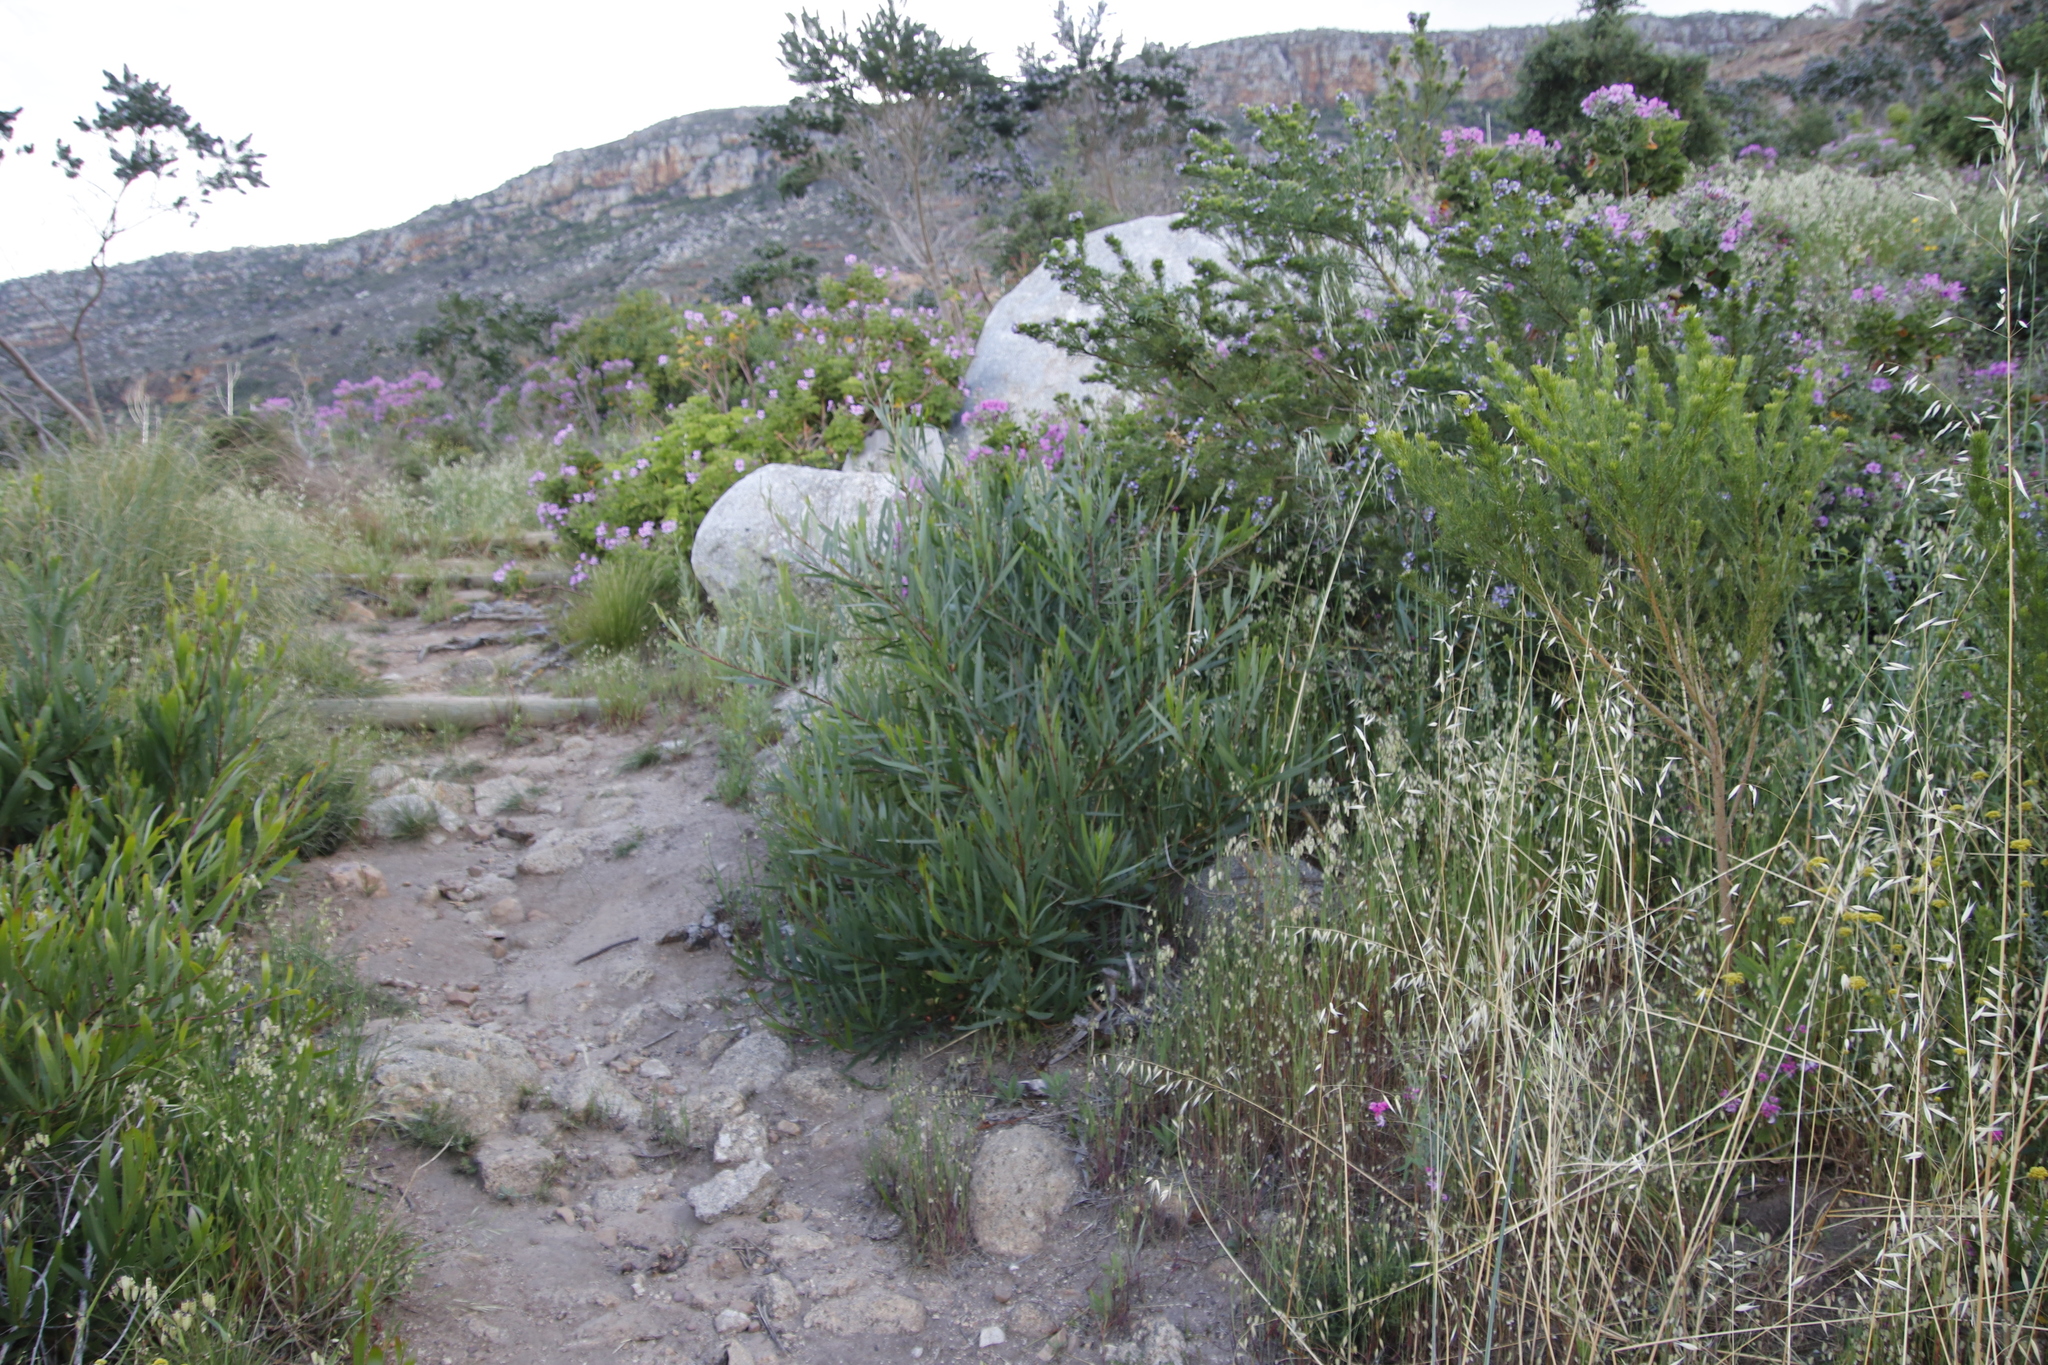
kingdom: Plantae
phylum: Tracheophyta
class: Magnoliopsida
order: Fabales
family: Fabaceae
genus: Acacia
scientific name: Acacia longifolia
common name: Sydney golden wattle
